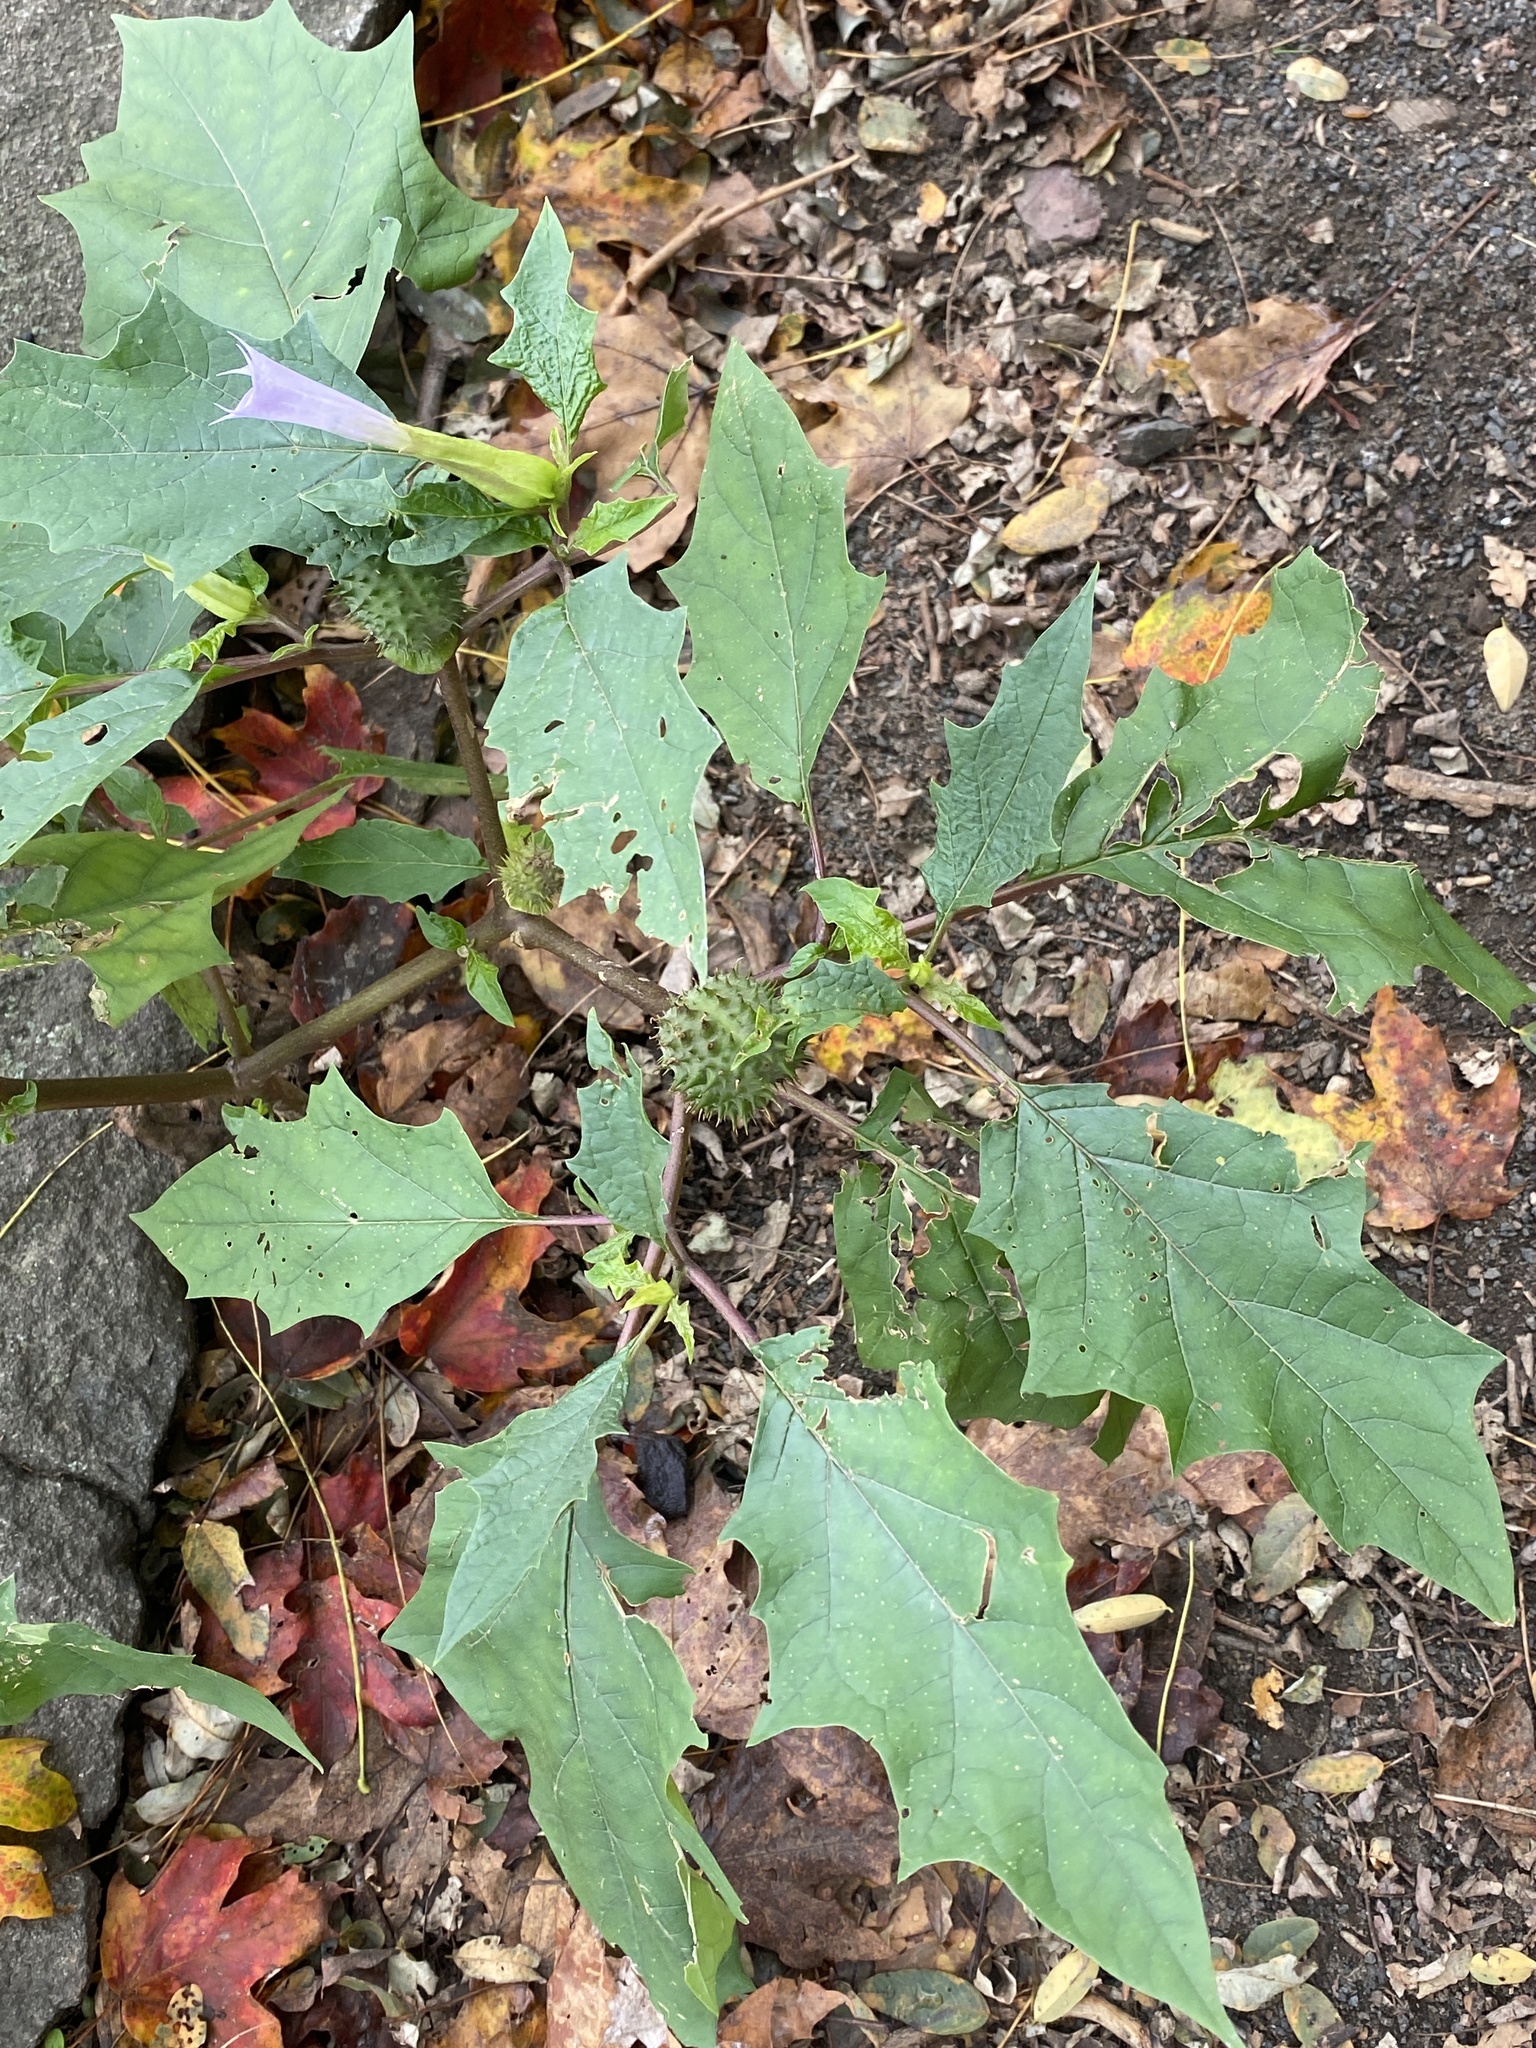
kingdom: Plantae
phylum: Tracheophyta
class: Magnoliopsida
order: Solanales
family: Solanaceae
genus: Datura
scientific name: Datura stramonium
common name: Thorn-apple
